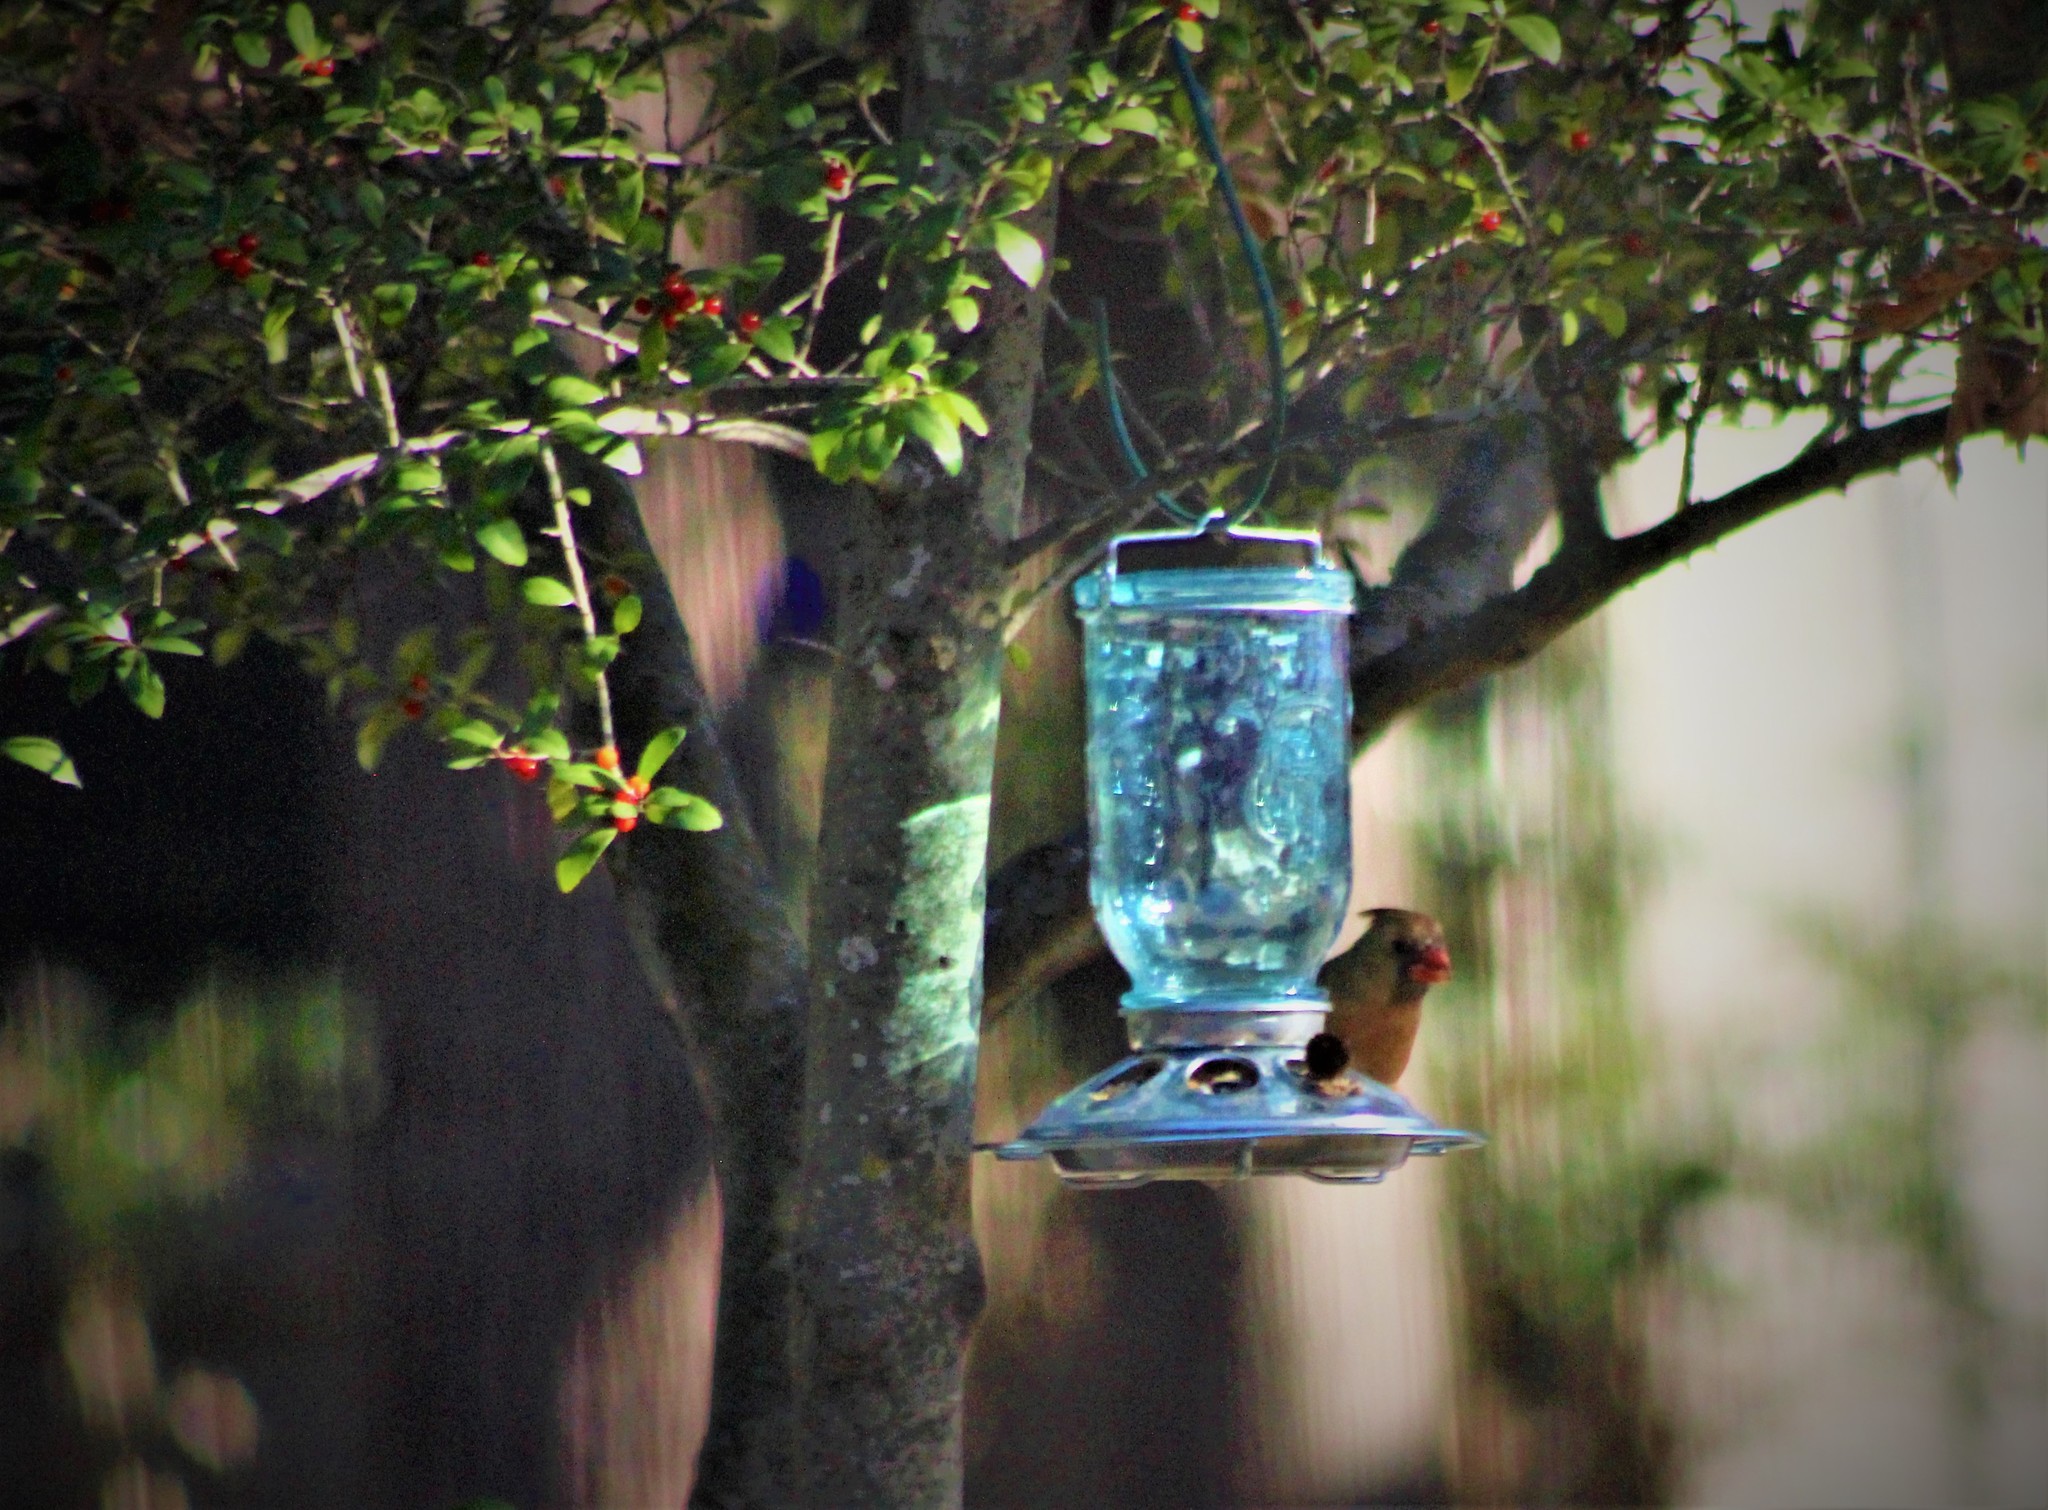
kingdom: Animalia
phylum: Chordata
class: Aves
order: Passeriformes
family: Cardinalidae
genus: Cardinalis
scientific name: Cardinalis cardinalis
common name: Northern cardinal
